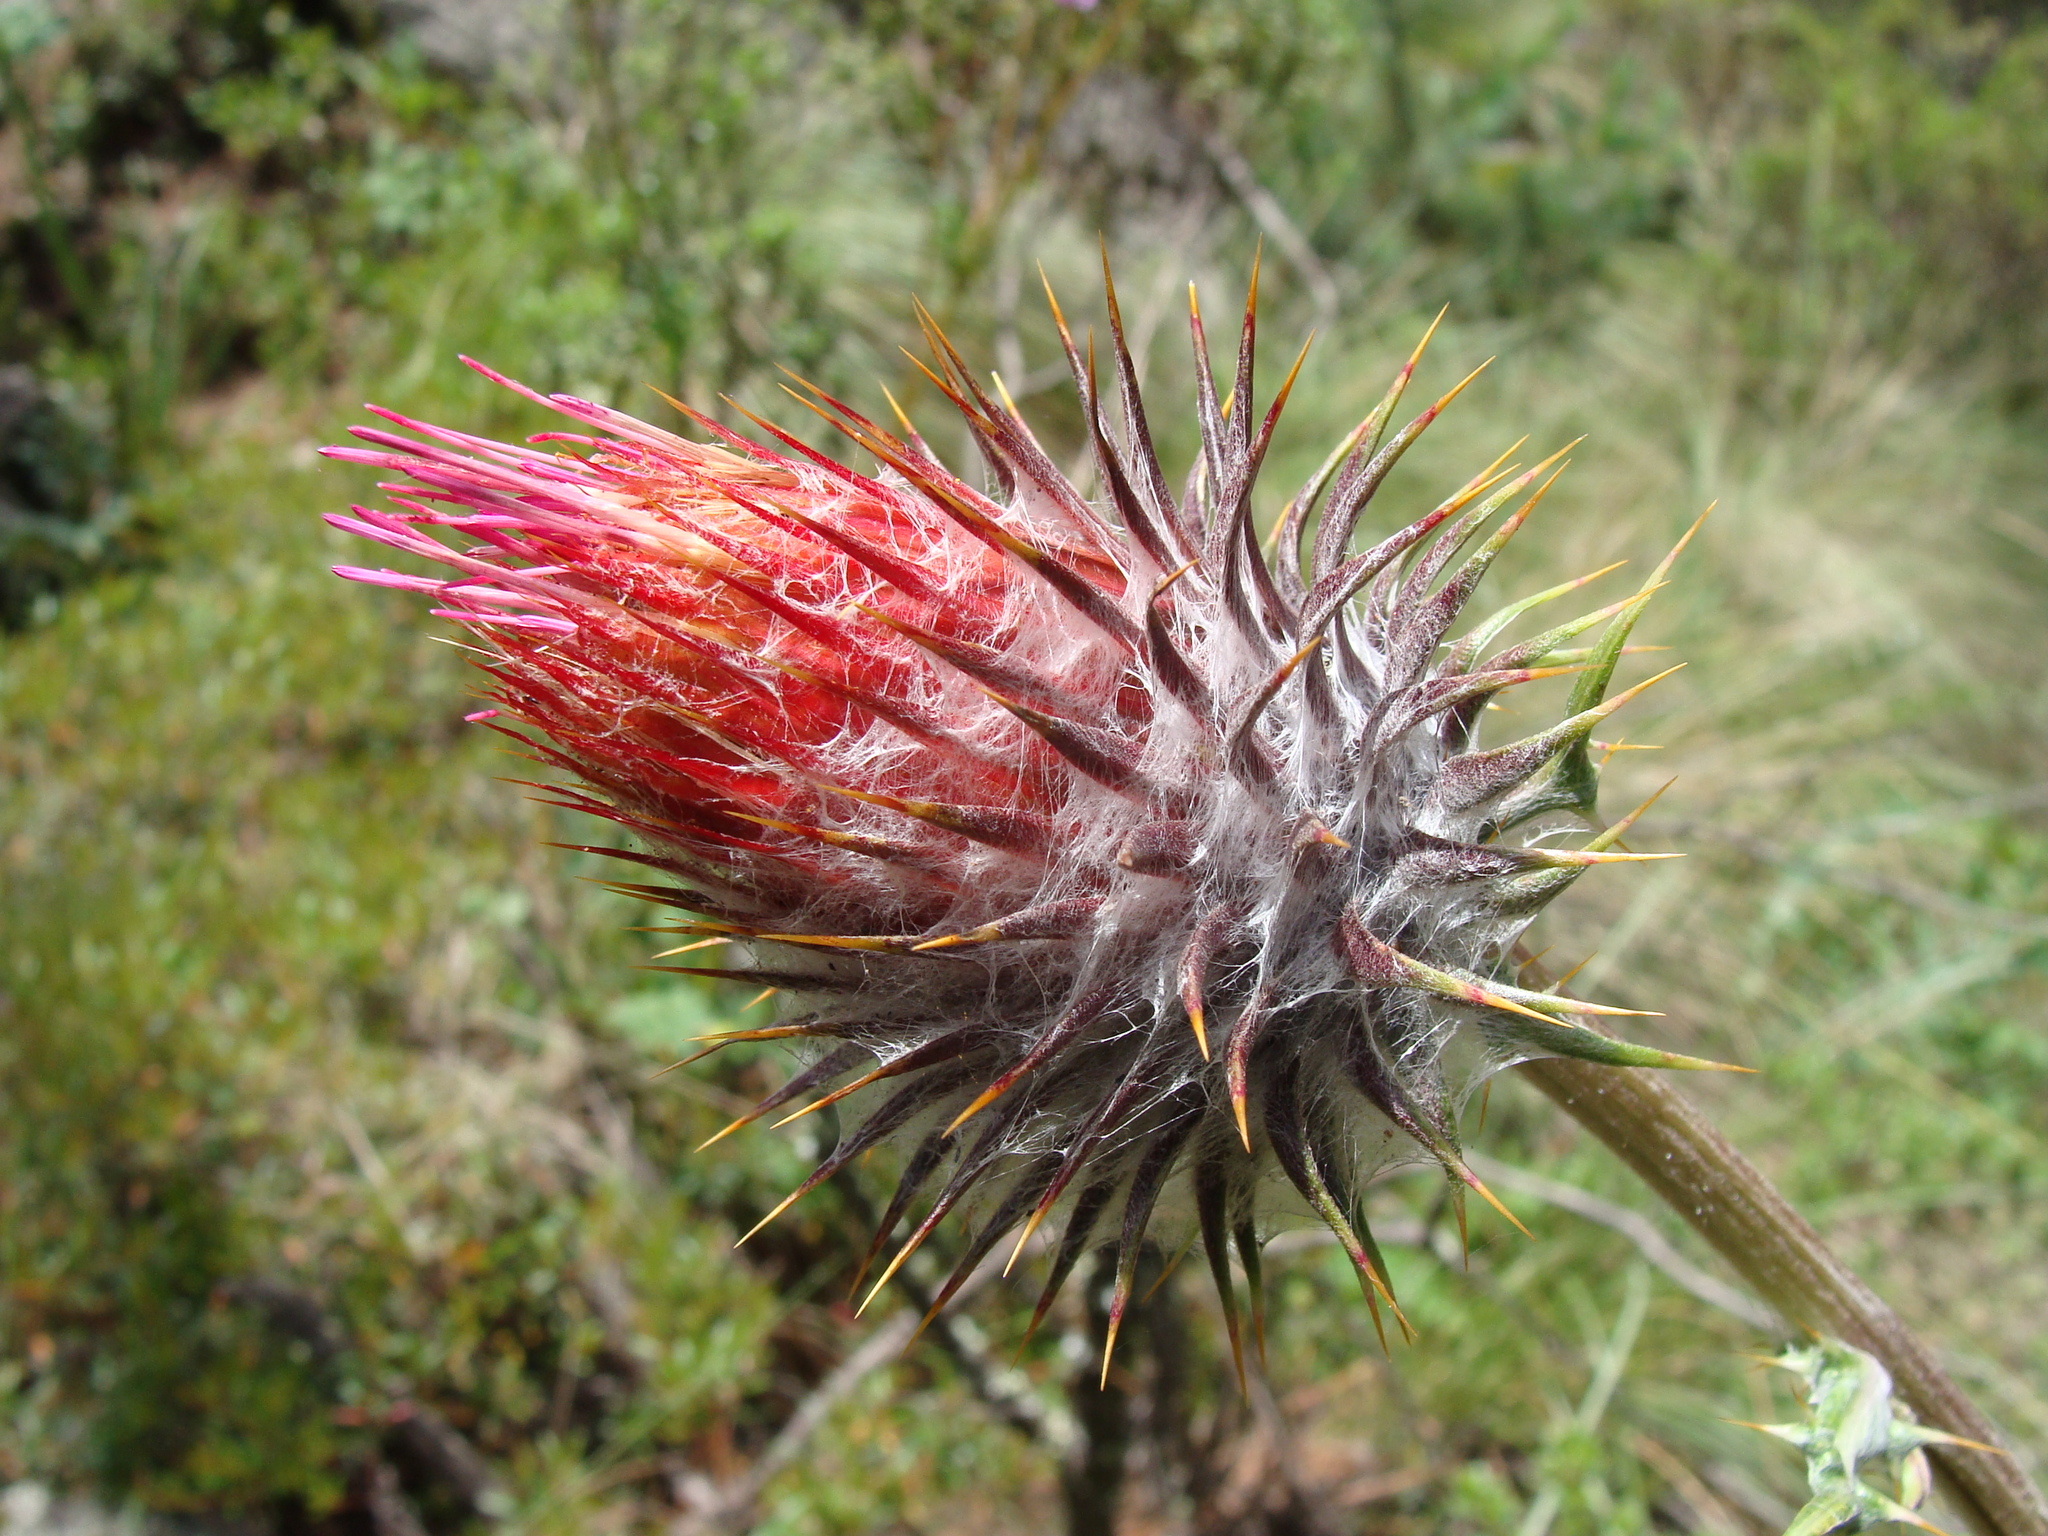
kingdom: Plantae
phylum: Tracheophyta
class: Magnoliopsida
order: Asterales
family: Asteraceae
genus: Cirsium
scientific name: Cirsium ehrenbergii
